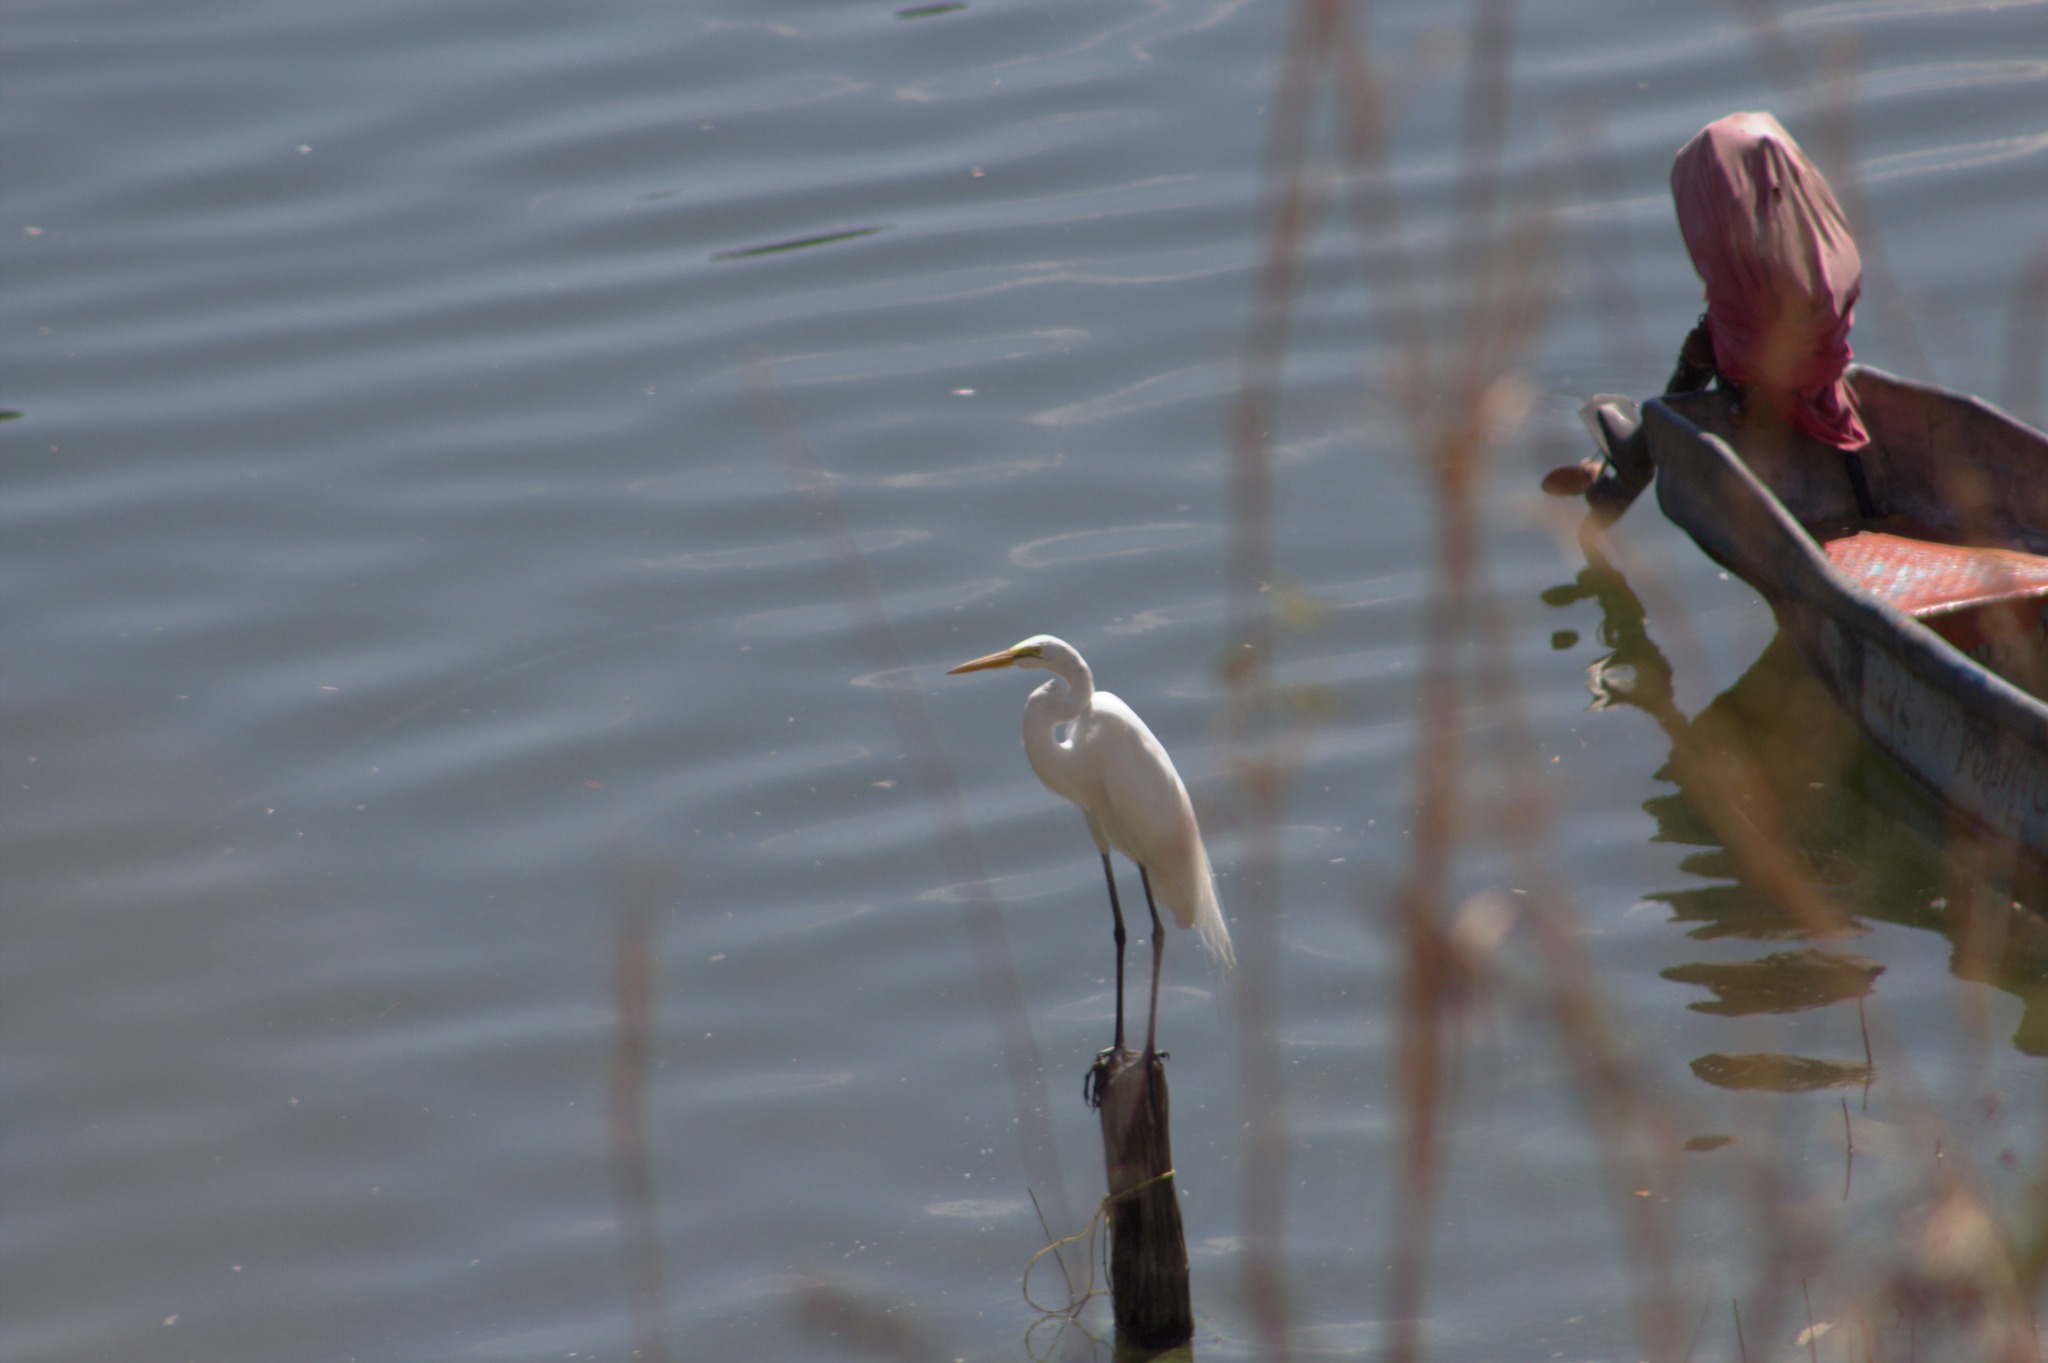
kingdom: Animalia
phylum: Chordata
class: Aves
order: Pelecaniformes
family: Ardeidae
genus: Ardea
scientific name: Ardea alba
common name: Great egret
